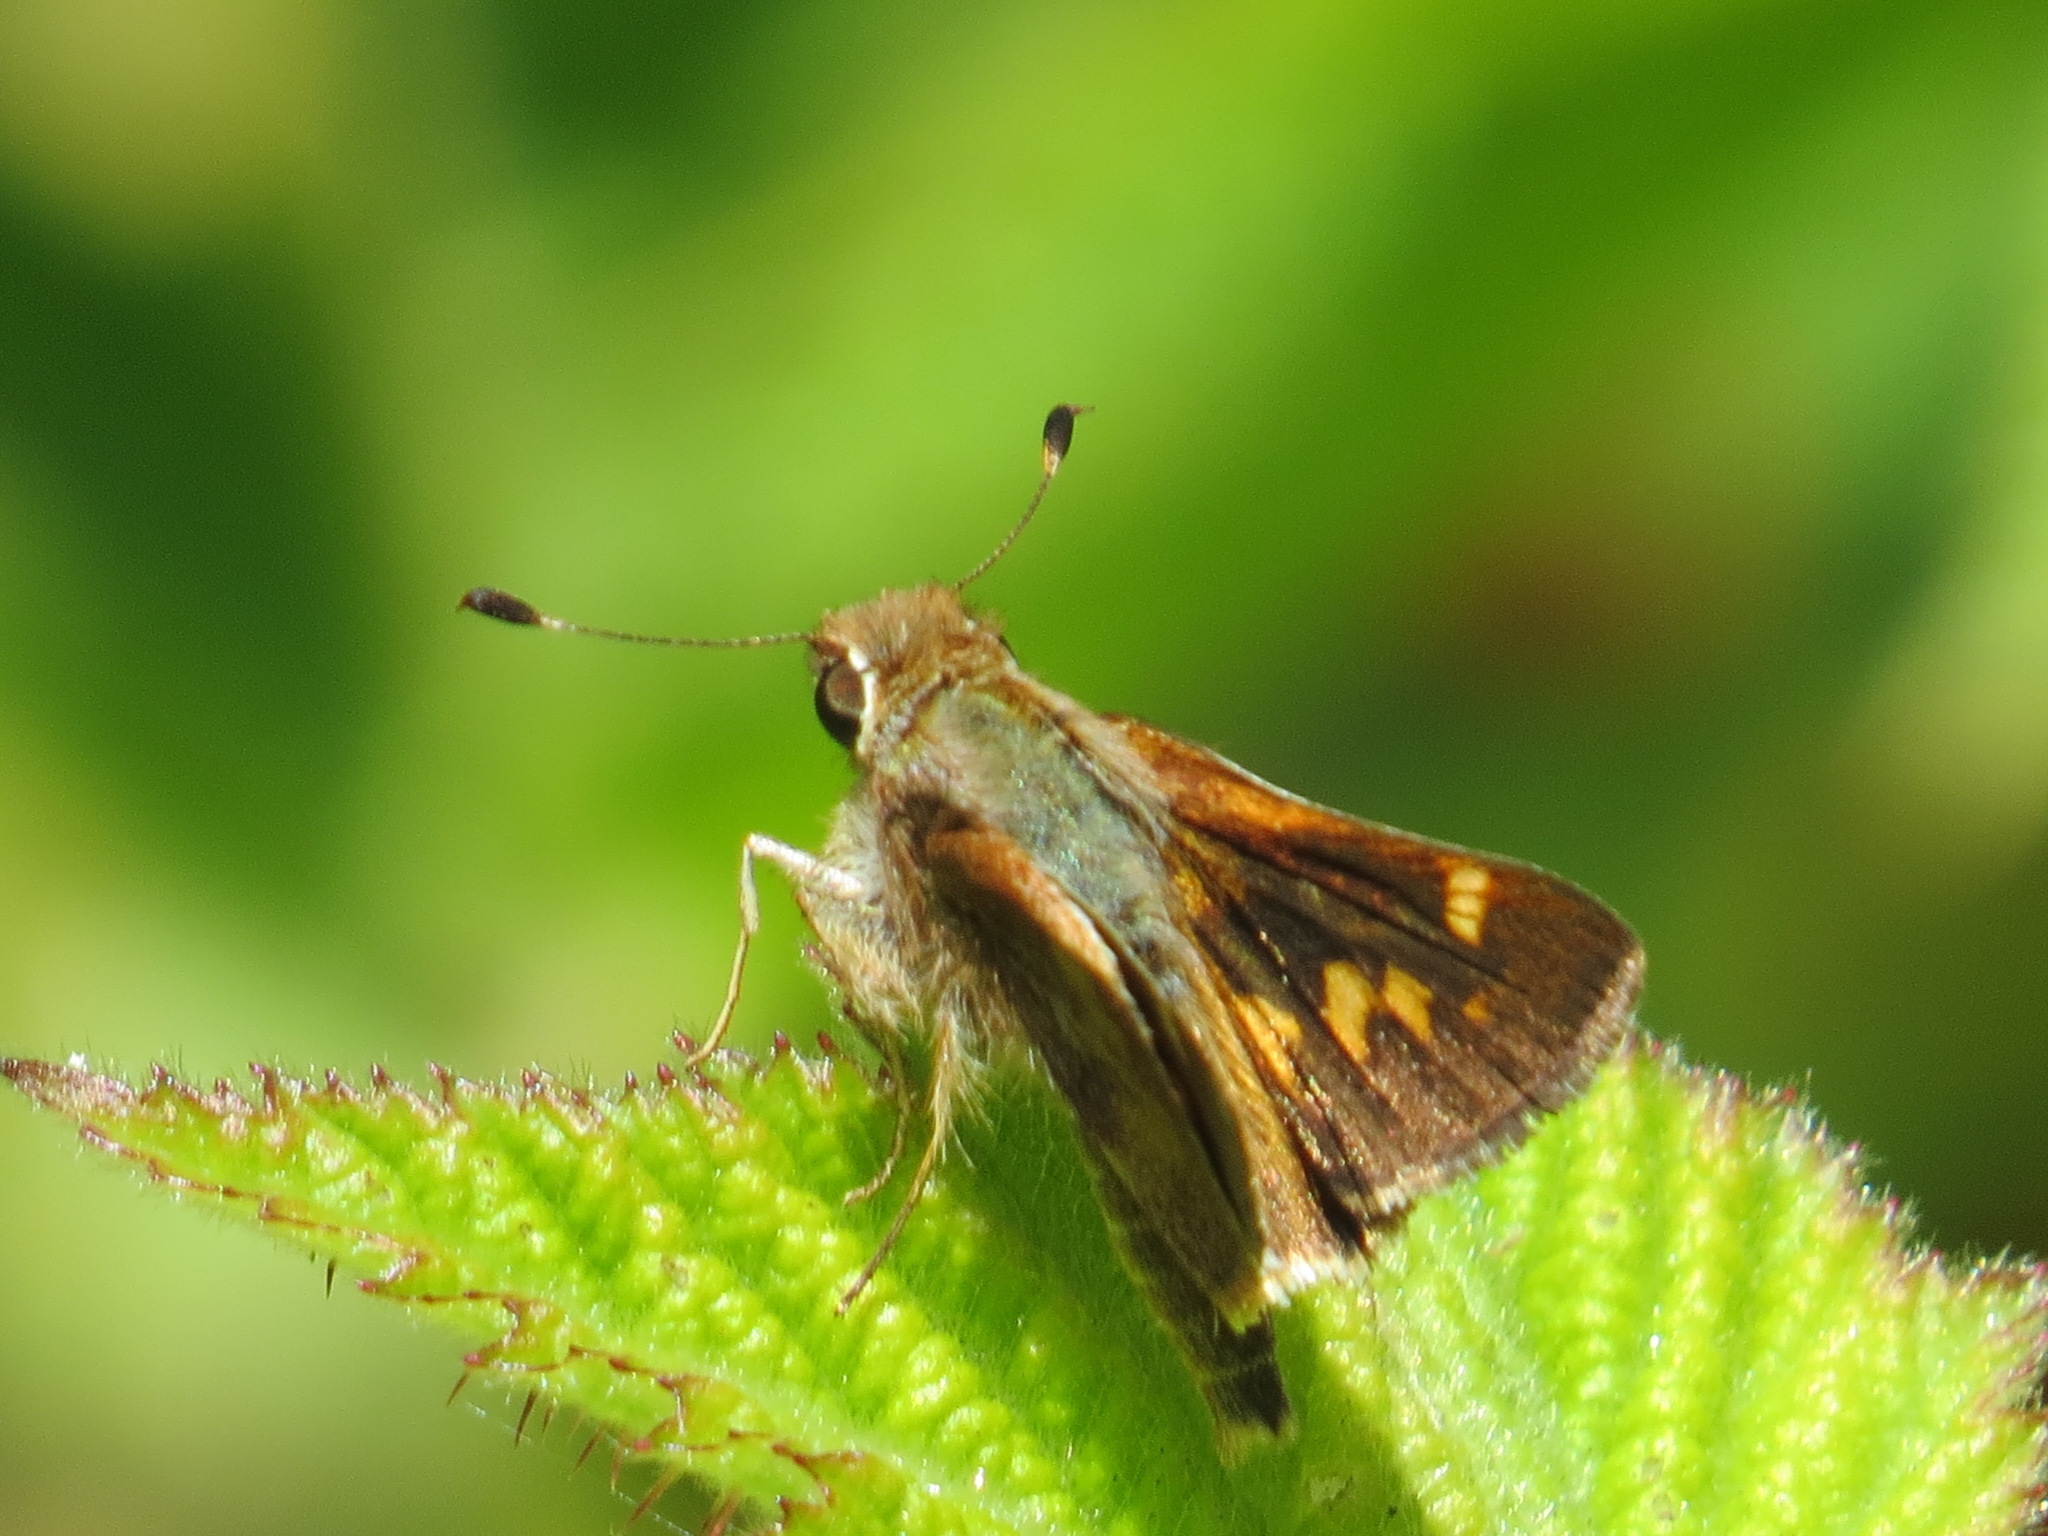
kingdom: Animalia
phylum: Arthropoda
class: Insecta
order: Lepidoptera
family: Hesperiidae
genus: Lon
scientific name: Lon melane
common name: Umber skipper
